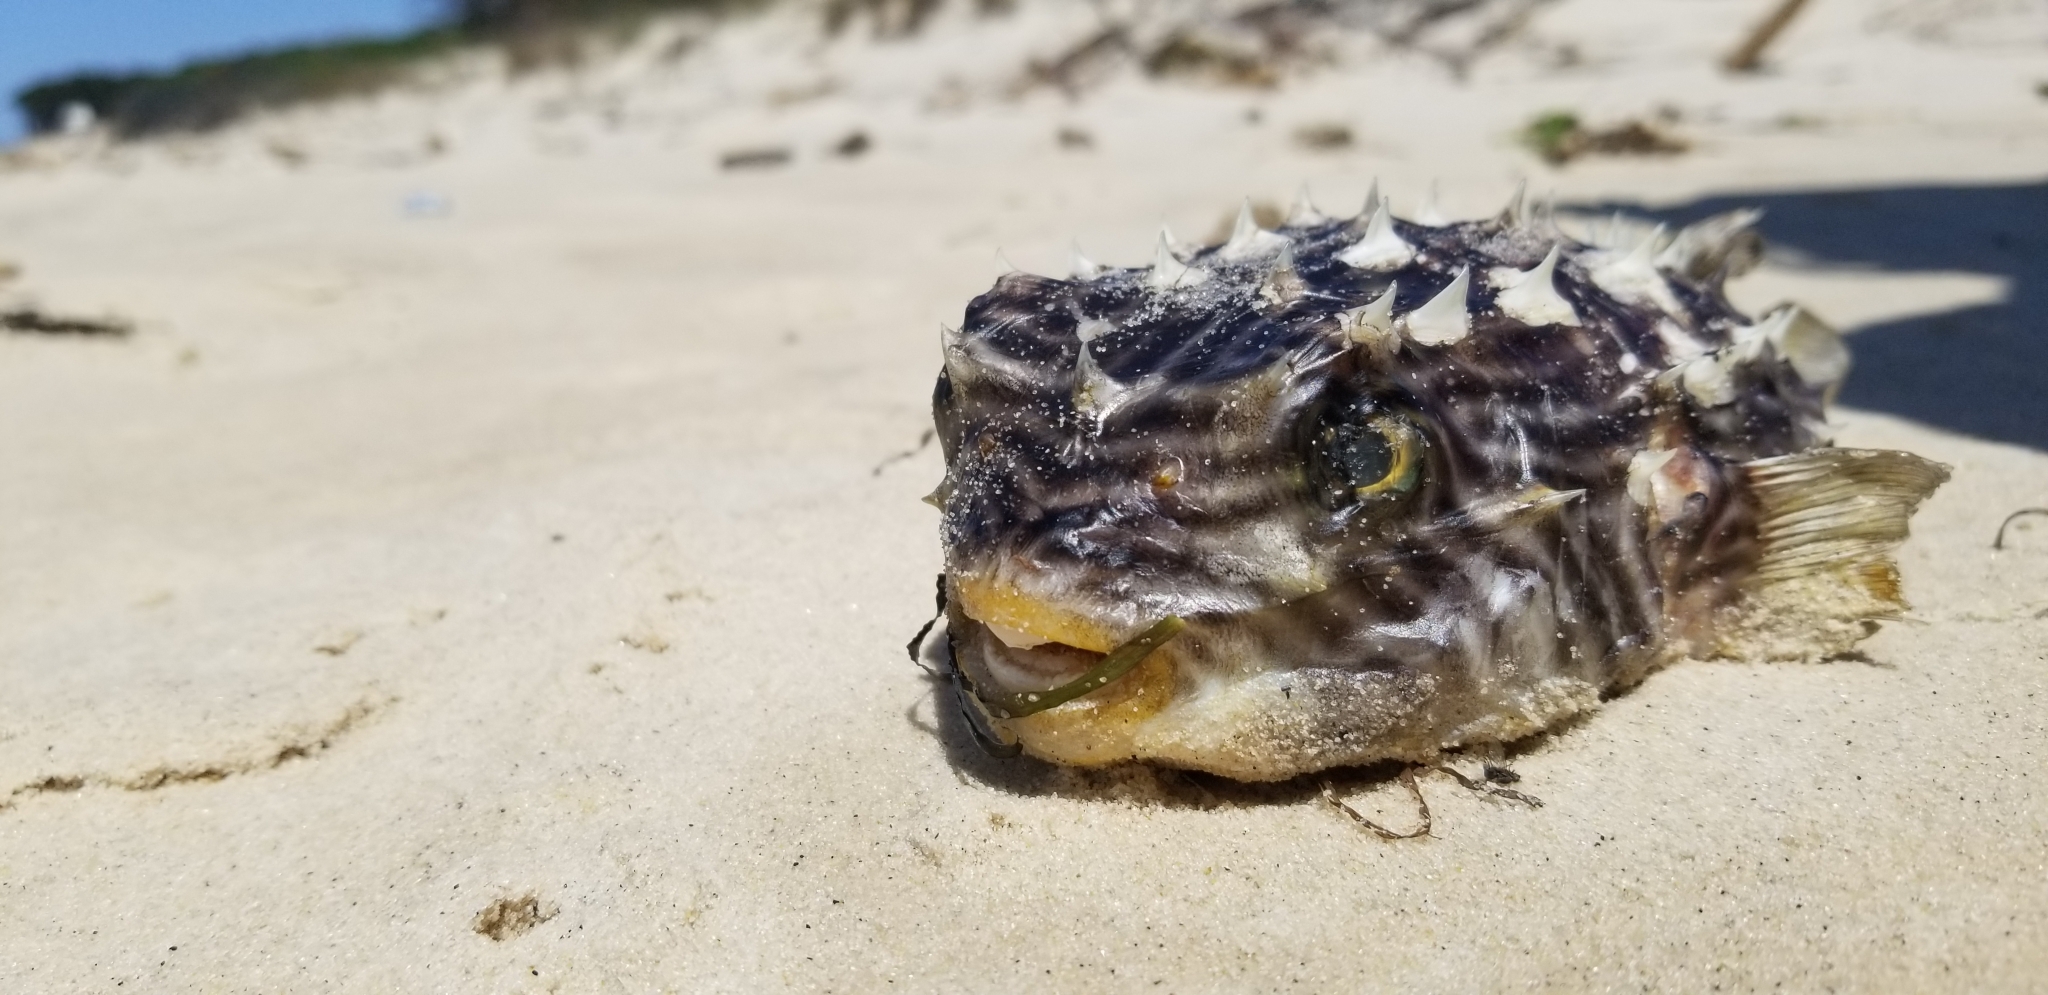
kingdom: Animalia
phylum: Chordata
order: Tetraodontiformes
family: Diodontidae
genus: Chilomycterus
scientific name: Chilomycterus schoepfii
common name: Striped burrfish
